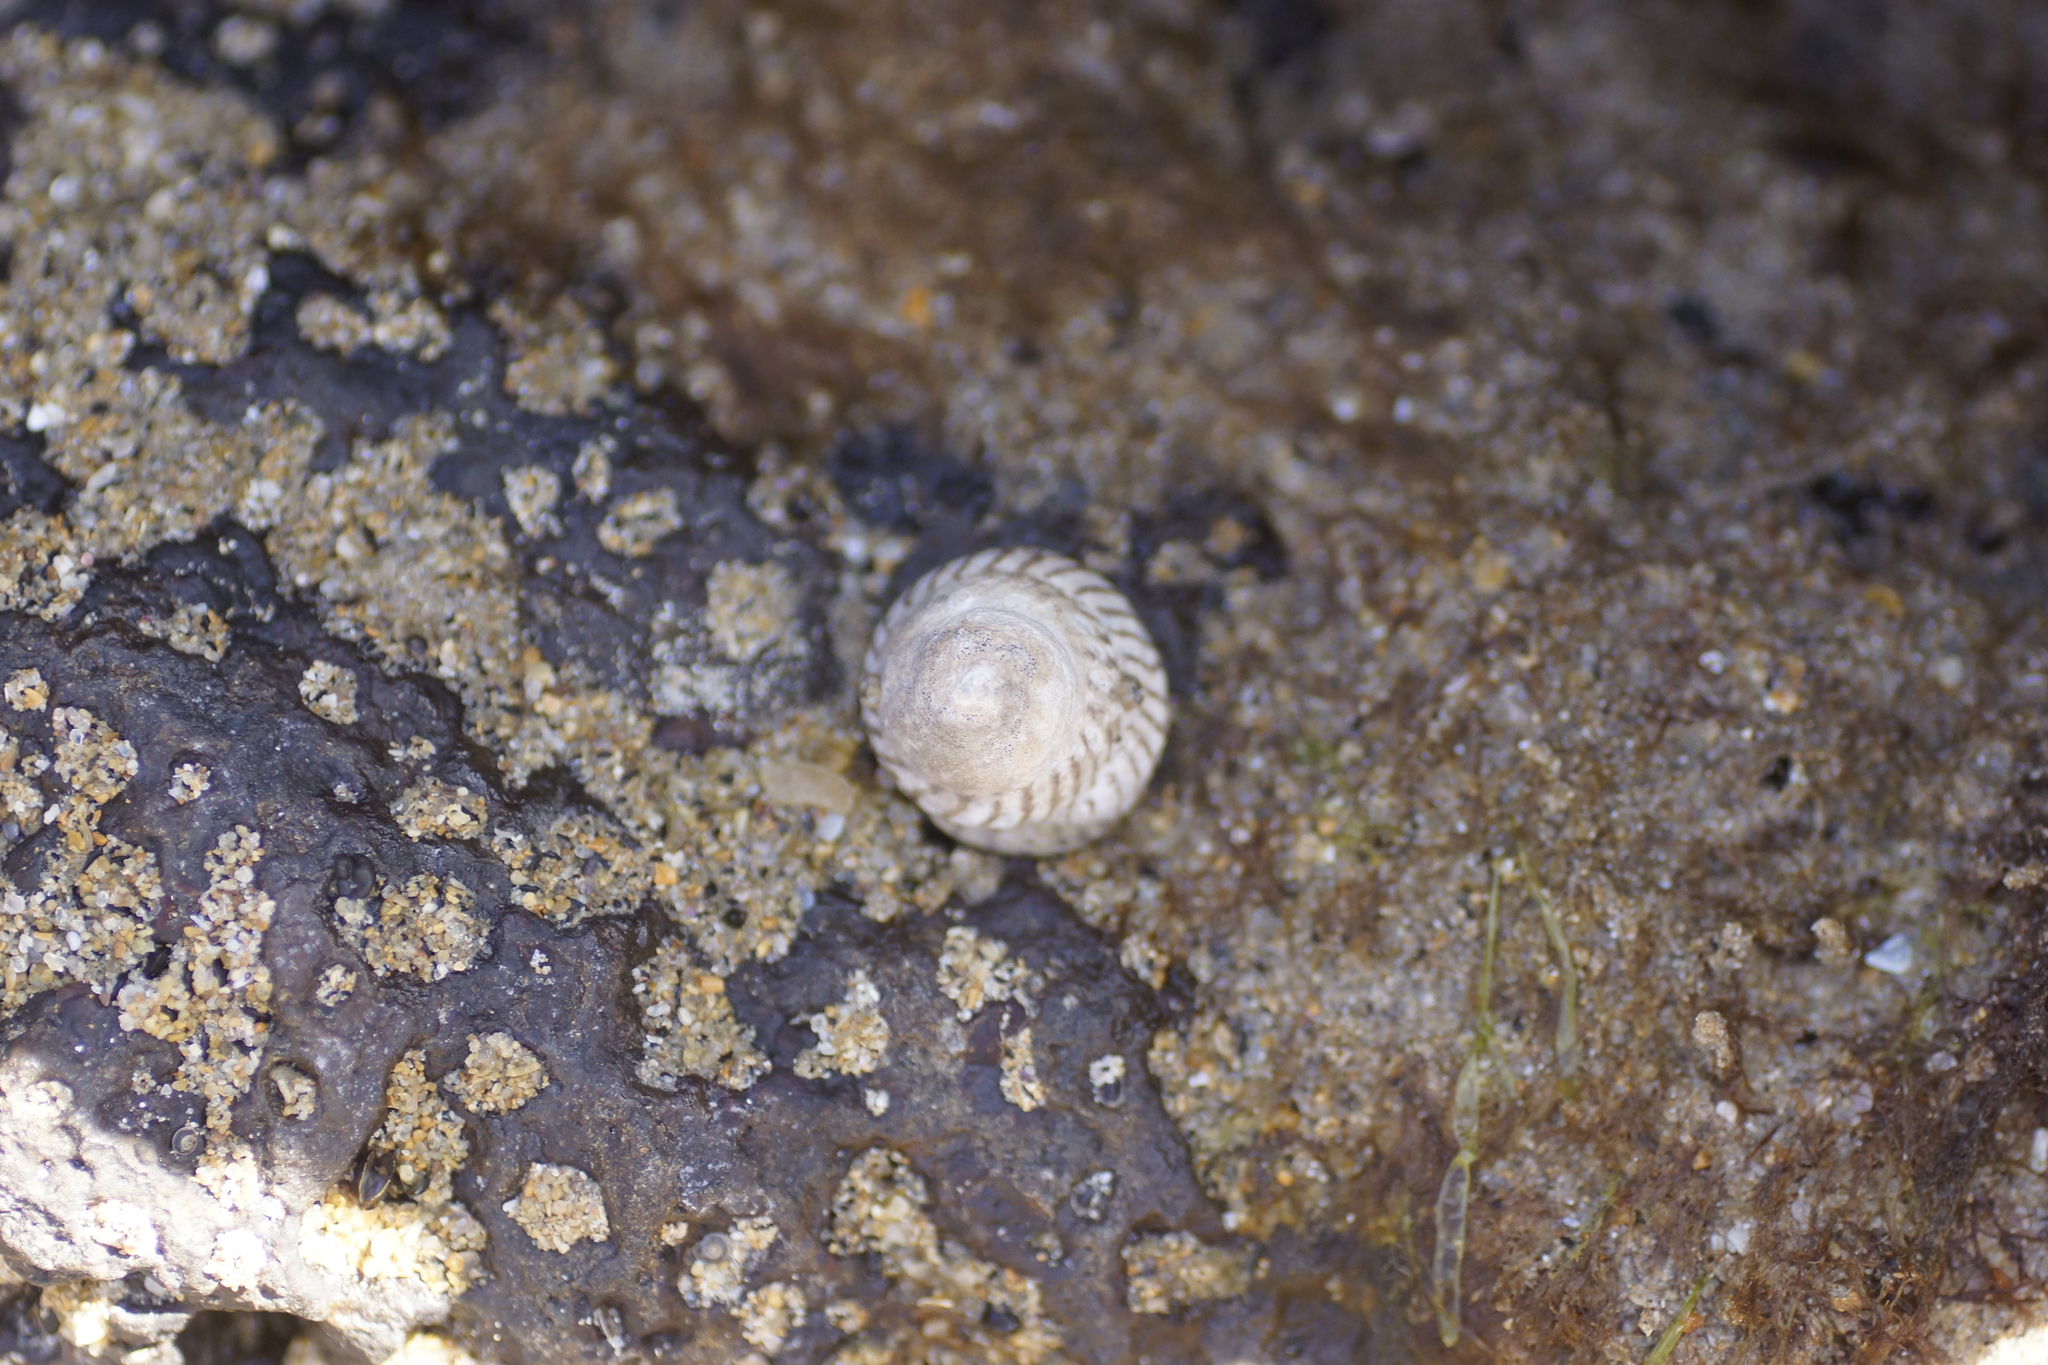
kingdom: Animalia
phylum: Mollusca
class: Gastropoda
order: Littorinimorpha
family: Littorinidae
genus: Bembicium
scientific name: Bembicium nanum
